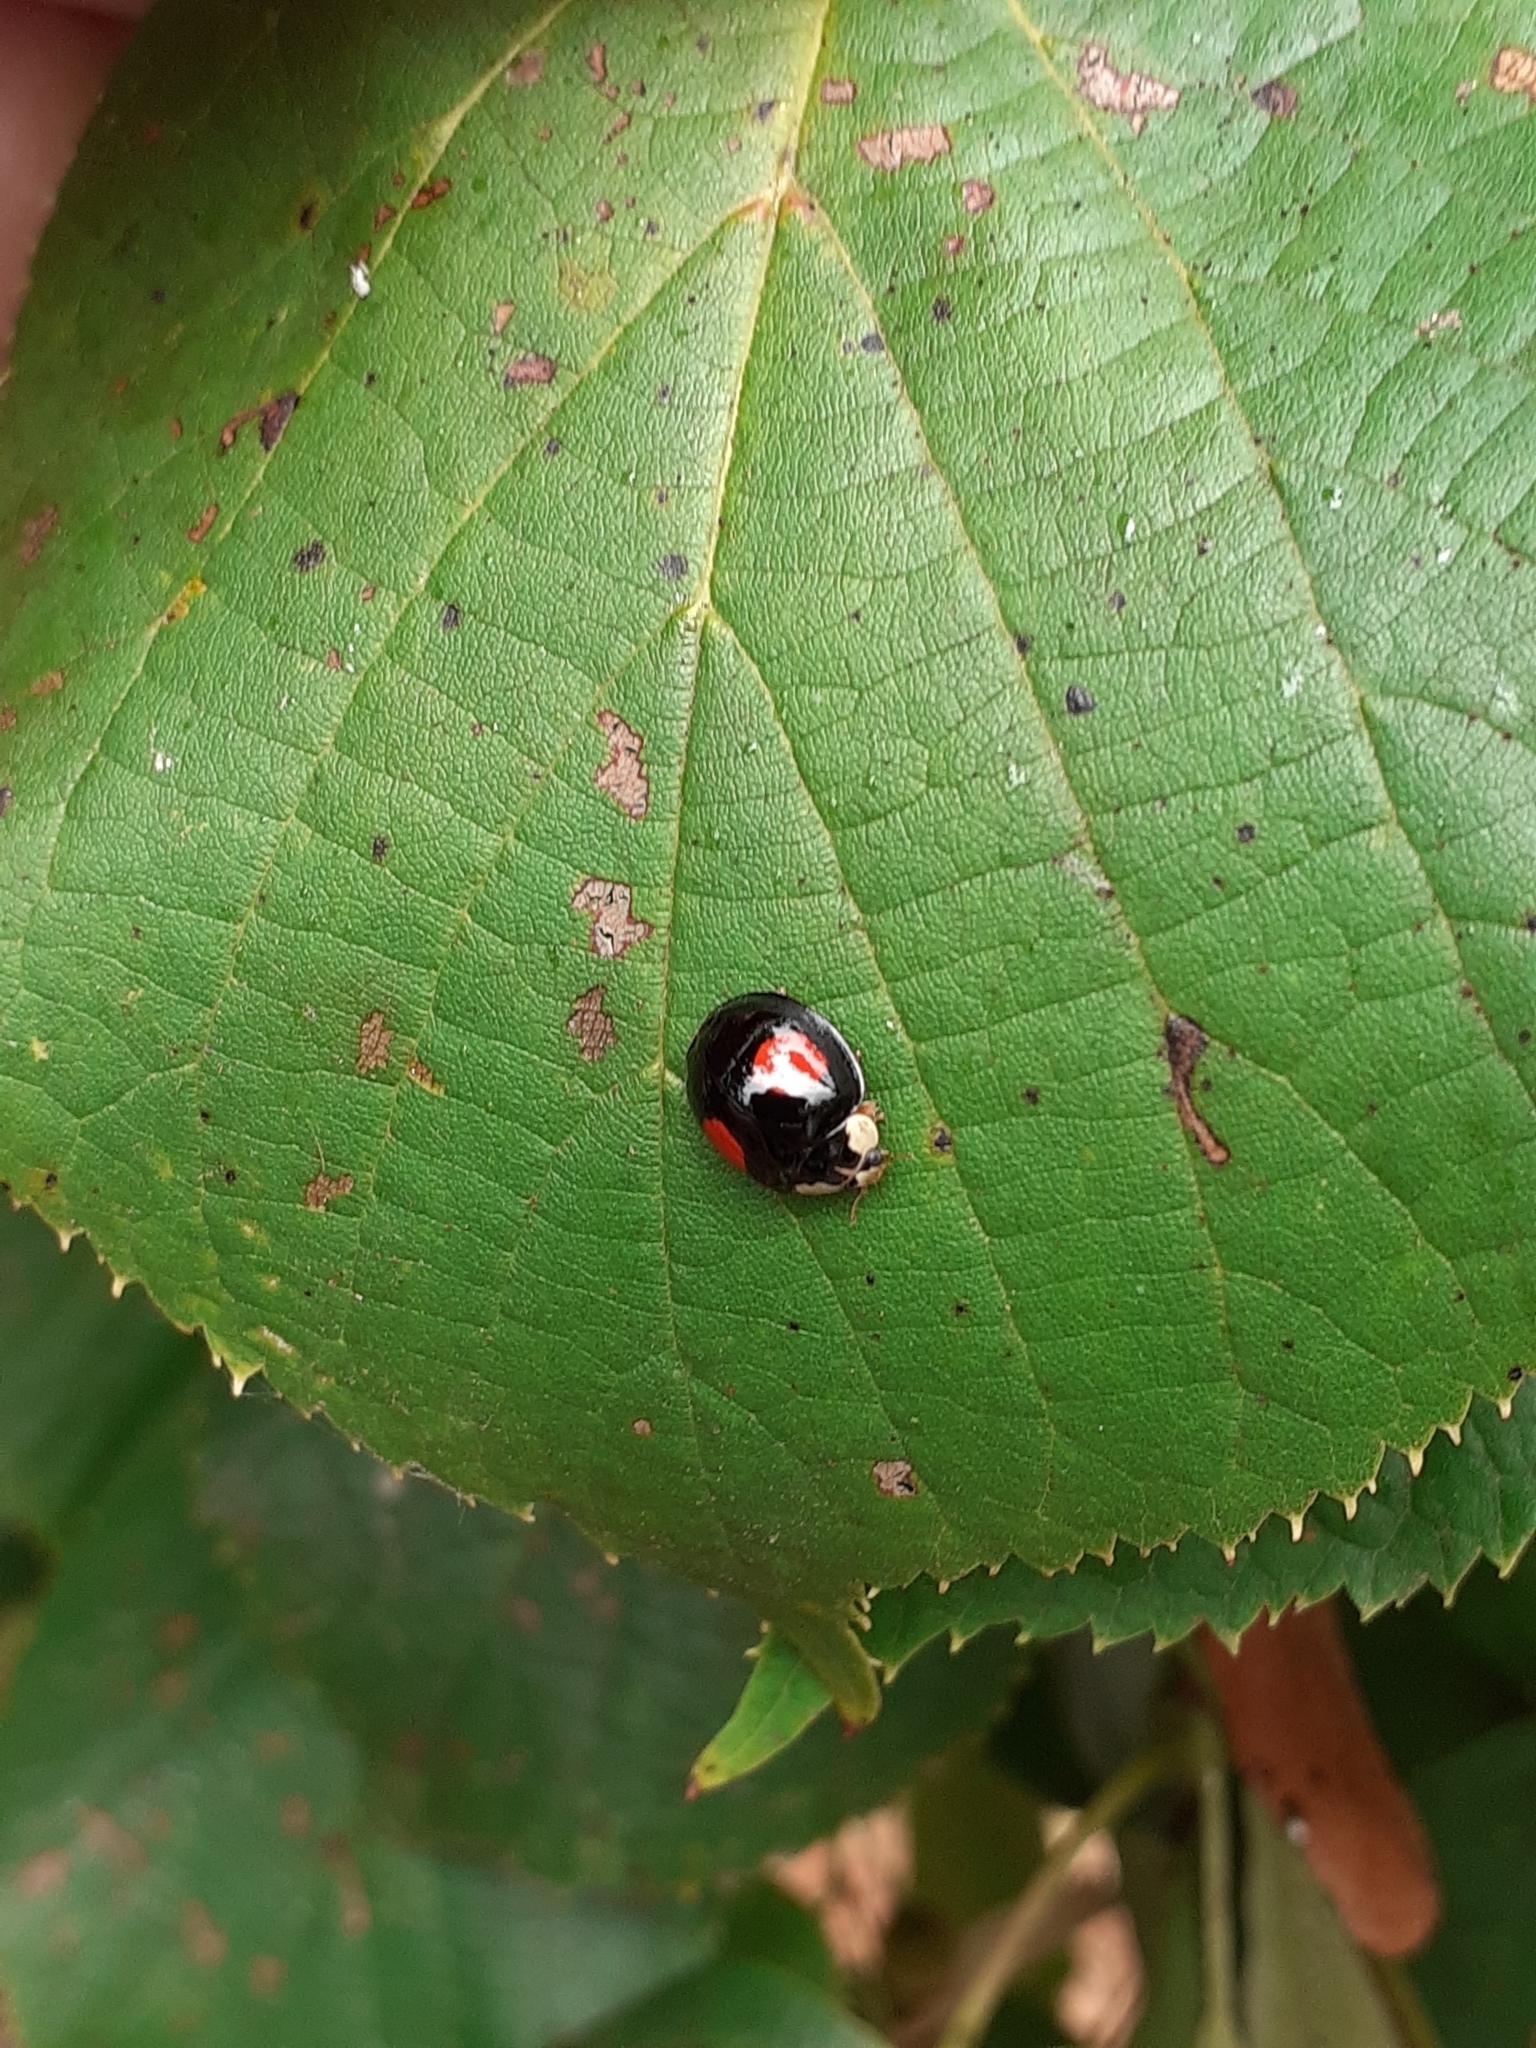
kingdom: Animalia
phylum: Arthropoda
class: Insecta
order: Coleoptera
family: Coccinellidae
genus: Harmonia
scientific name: Harmonia axyridis
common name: Harlequin ladybird
